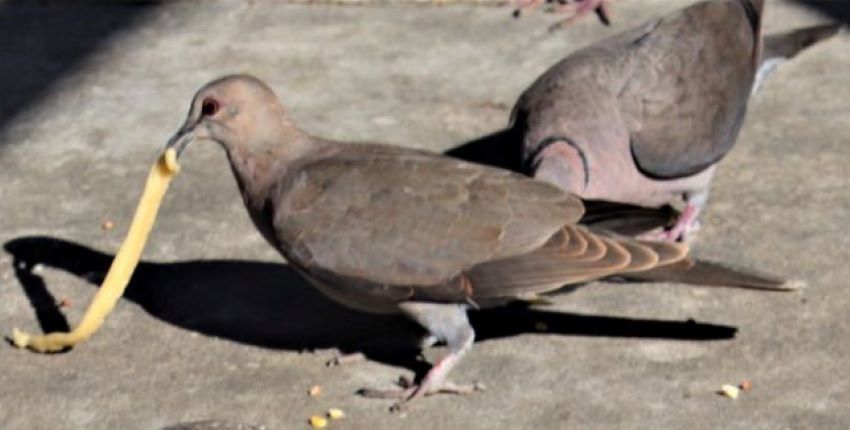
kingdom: Animalia
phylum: Chordata
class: Aves
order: Columbiformes
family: Columbidae
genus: Streptopelia
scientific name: Streptopelia semitorquata
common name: Red-eyed dove
